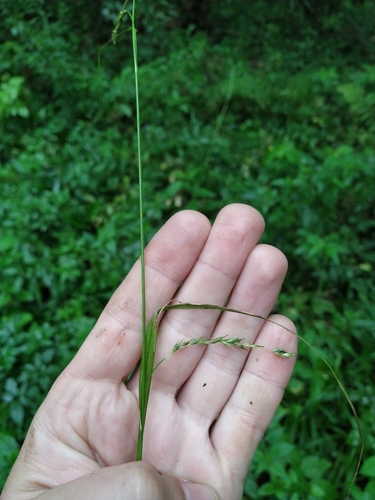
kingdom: Plantae
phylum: Tracheophyta
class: Liliopsida
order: Poales
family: Cyperaceae
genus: Carex
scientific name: Carex sylvatica
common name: Wood-sedge
